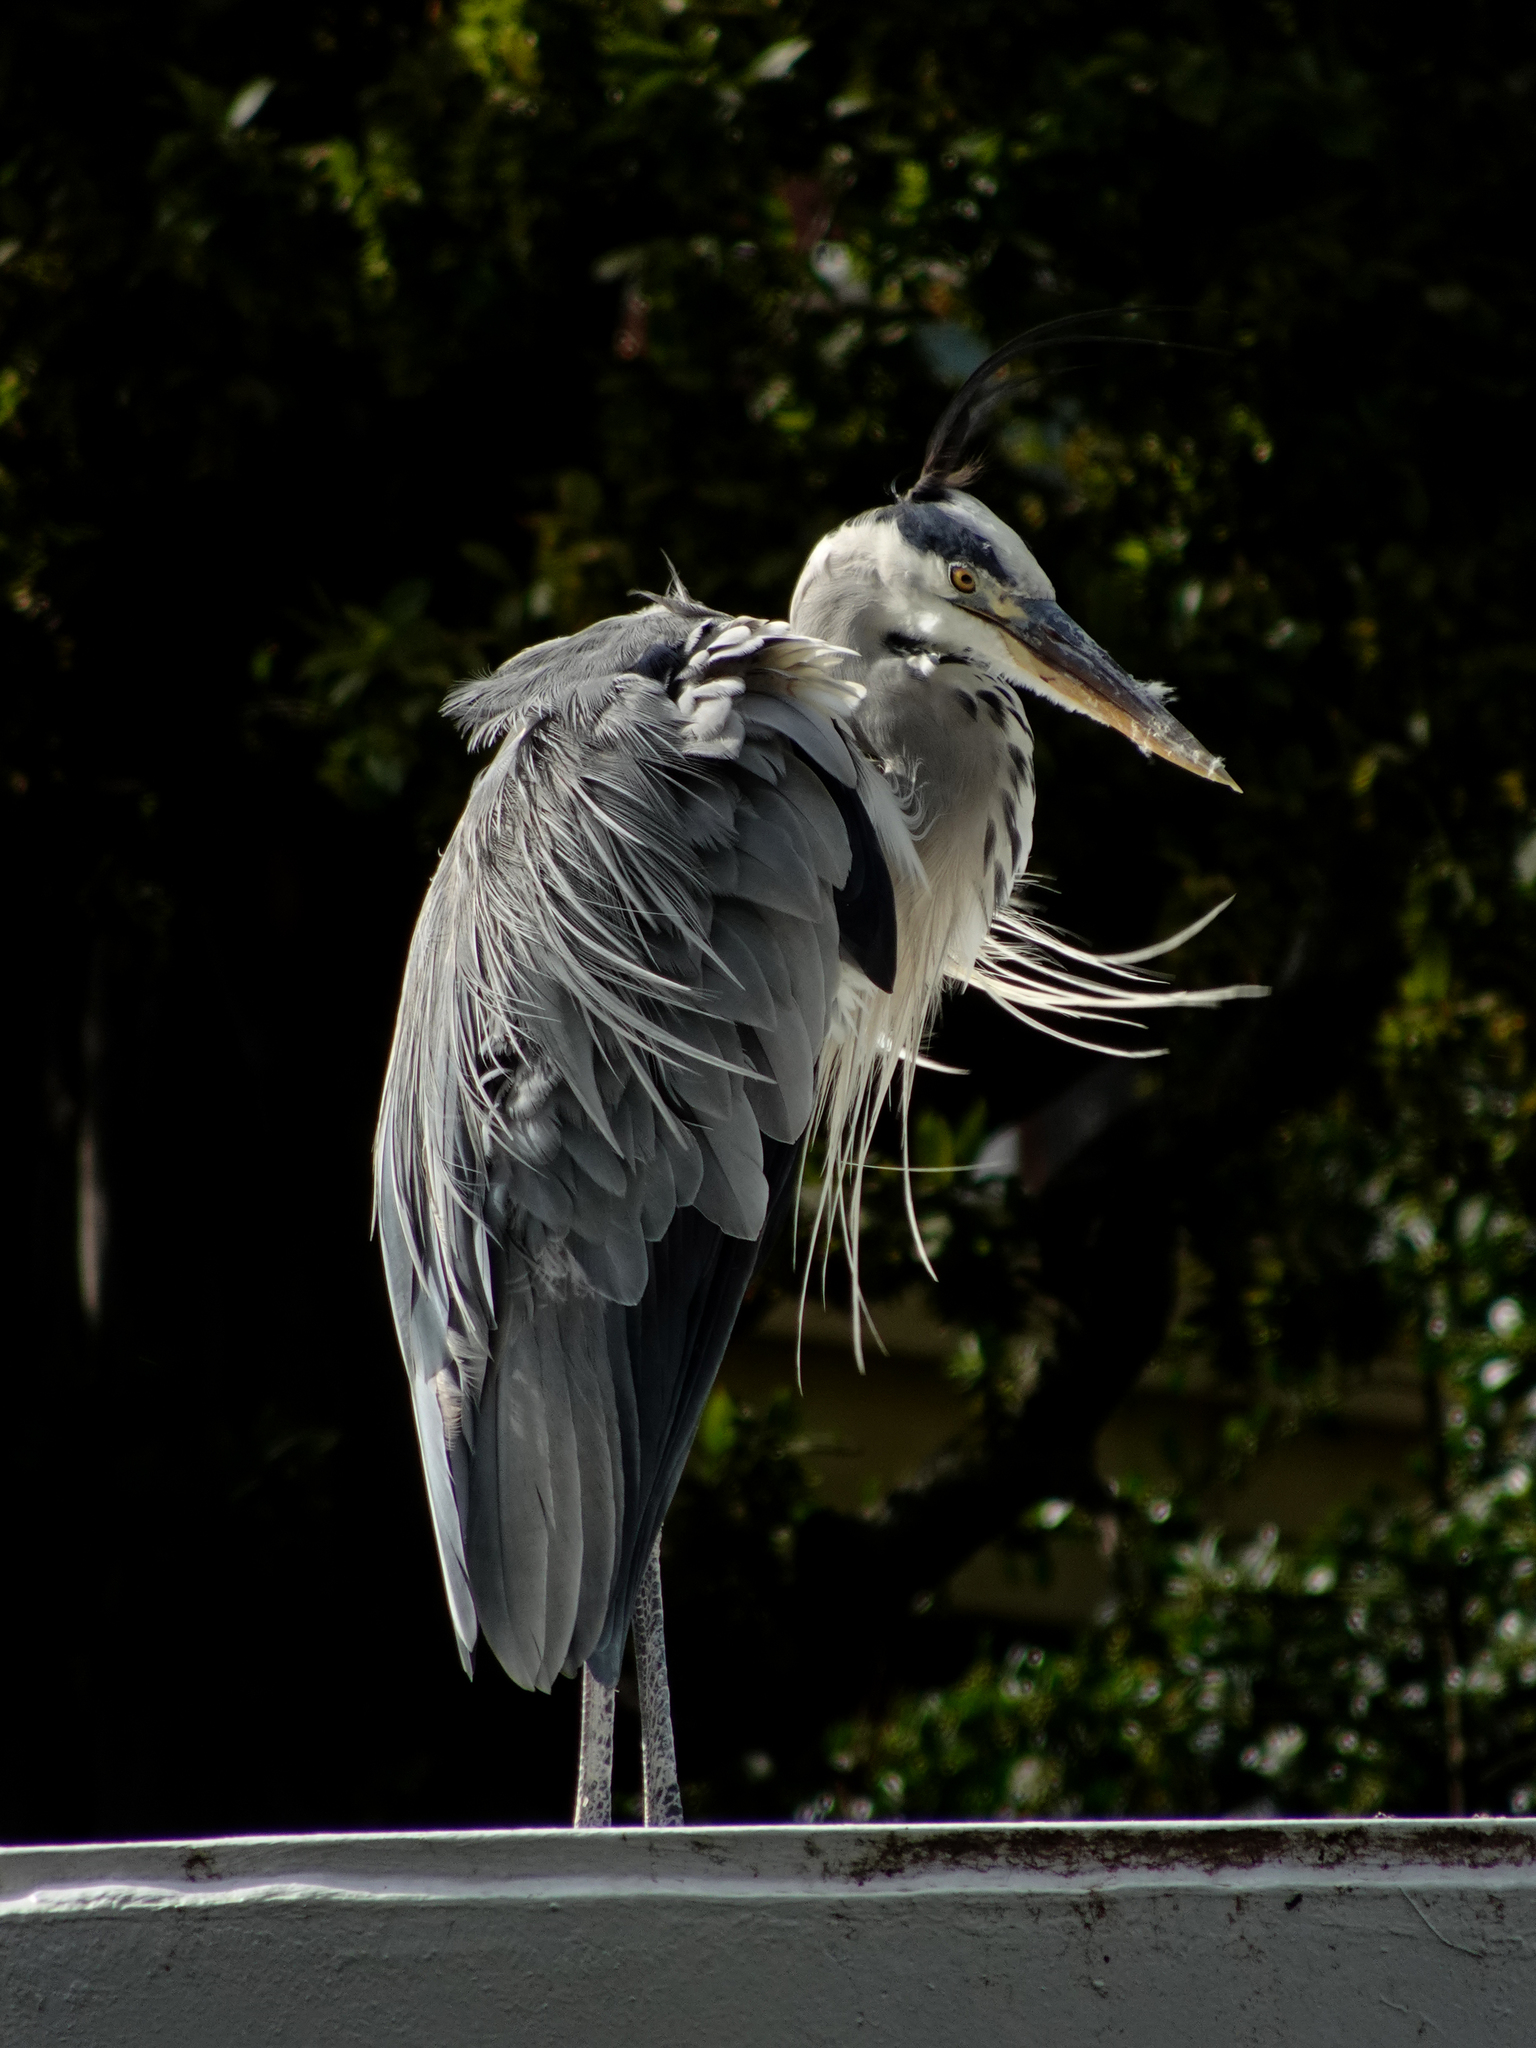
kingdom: Animalia
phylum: Chordata
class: Aves
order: Pelecaniformes
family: Ardeidae
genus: Ardea
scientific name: Ardea cinerea
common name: Grey heron
